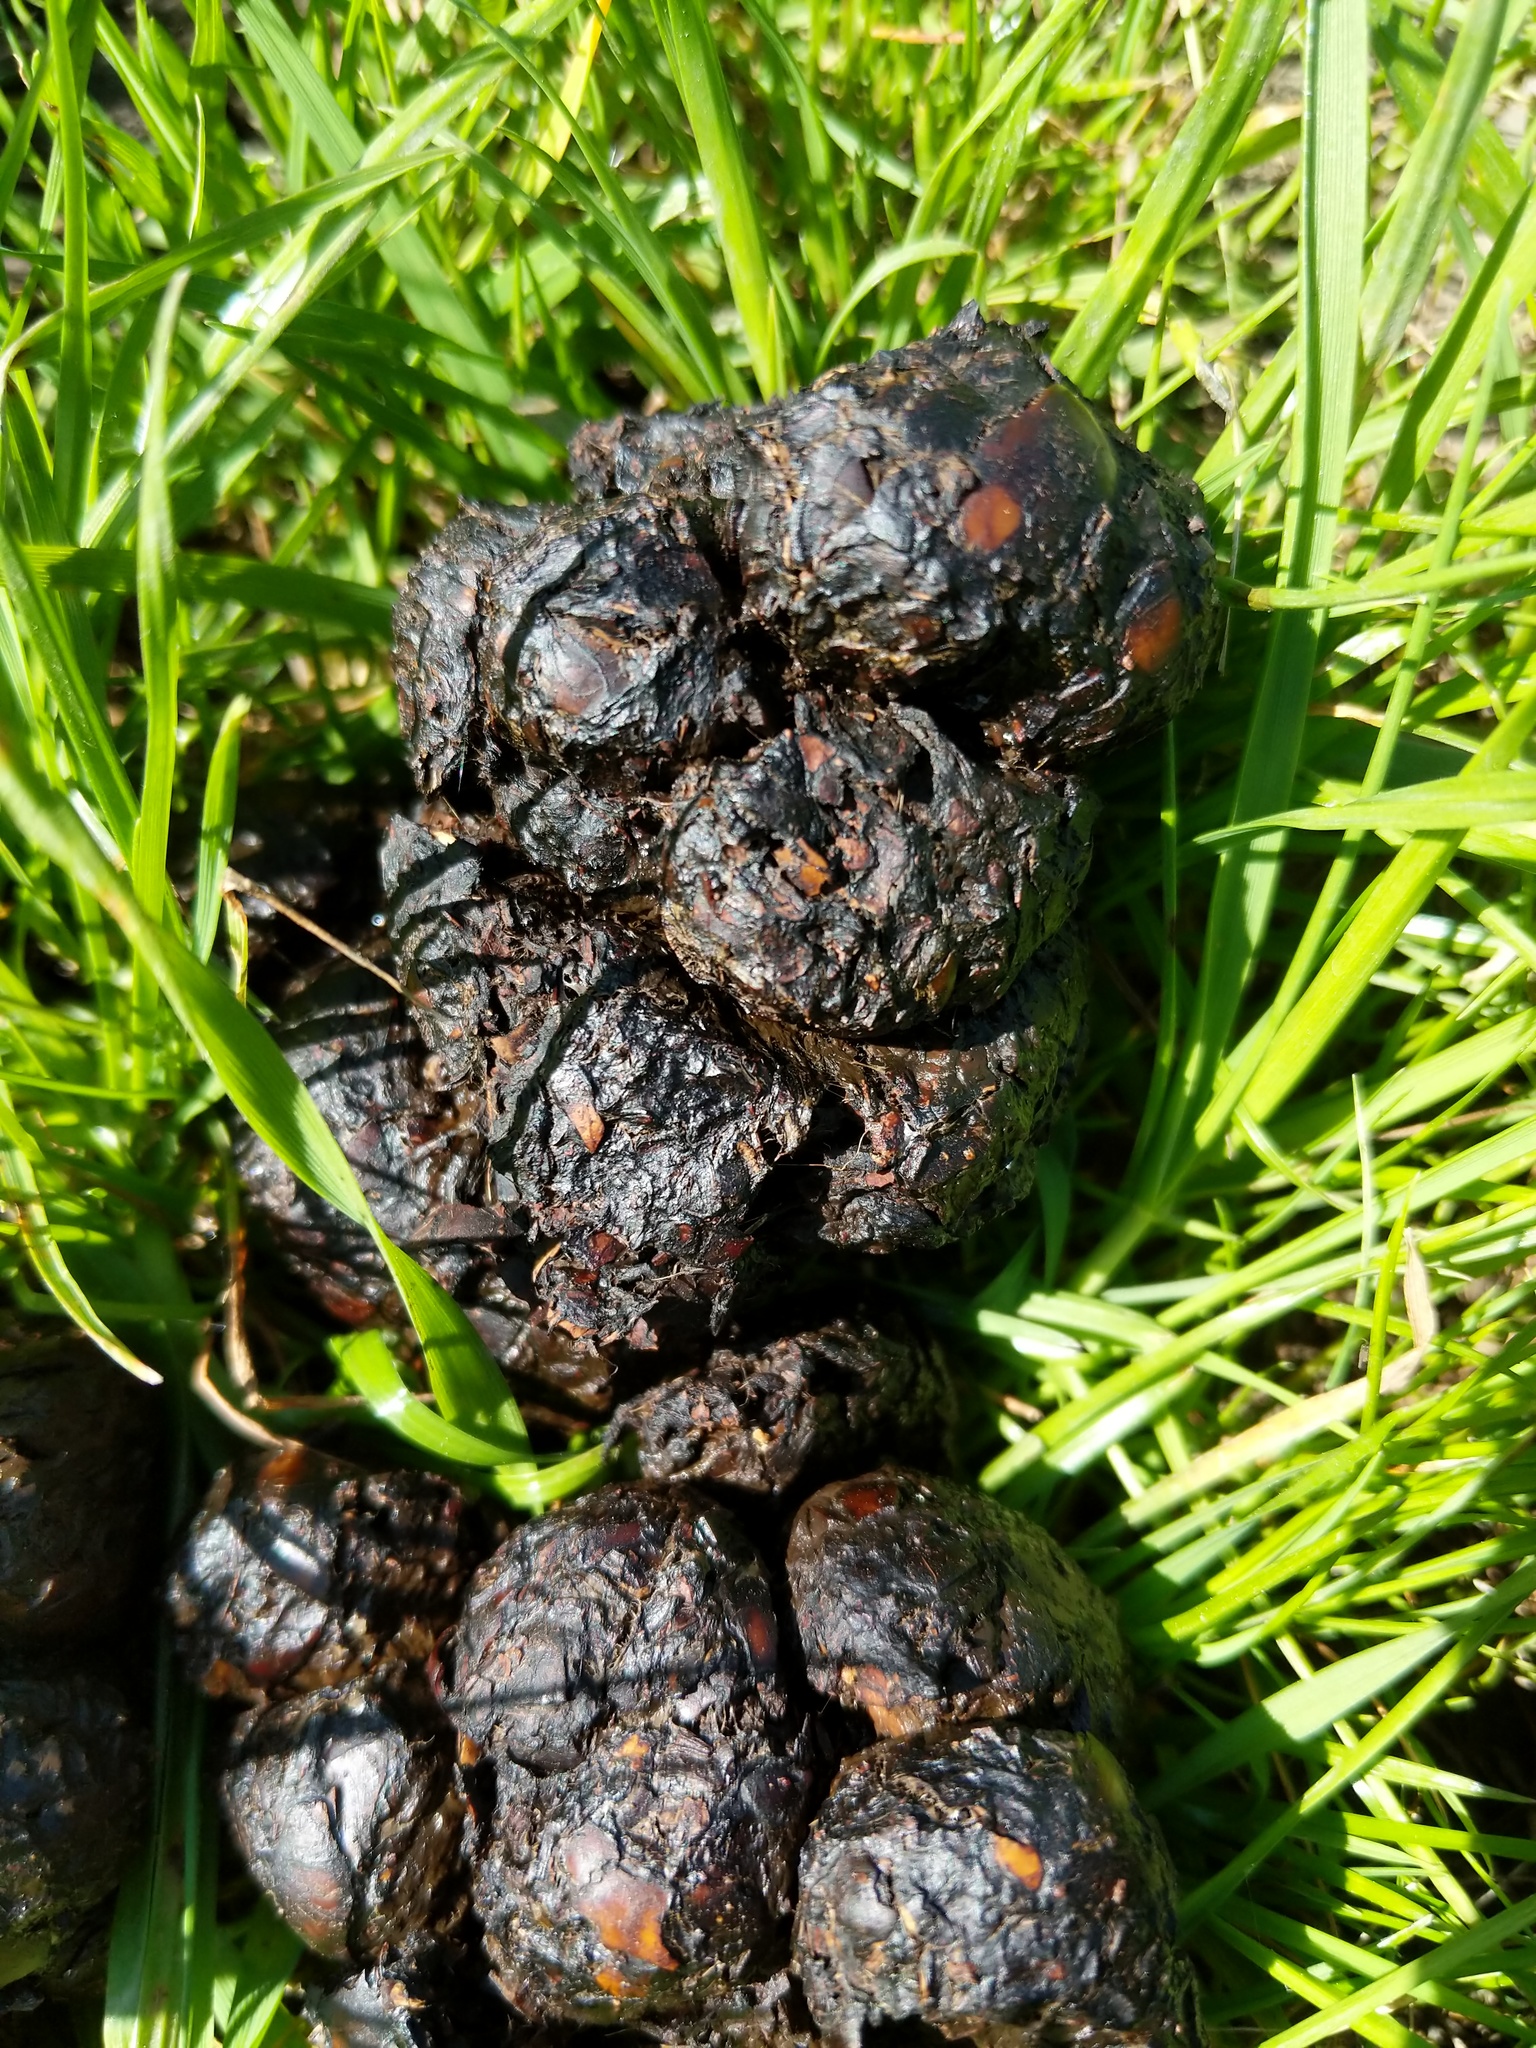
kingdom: Animalia
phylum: Chordata
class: Mammalia
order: Artiodactyla
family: Suidae
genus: Sus
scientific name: Sus scrofa
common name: Wild boar
